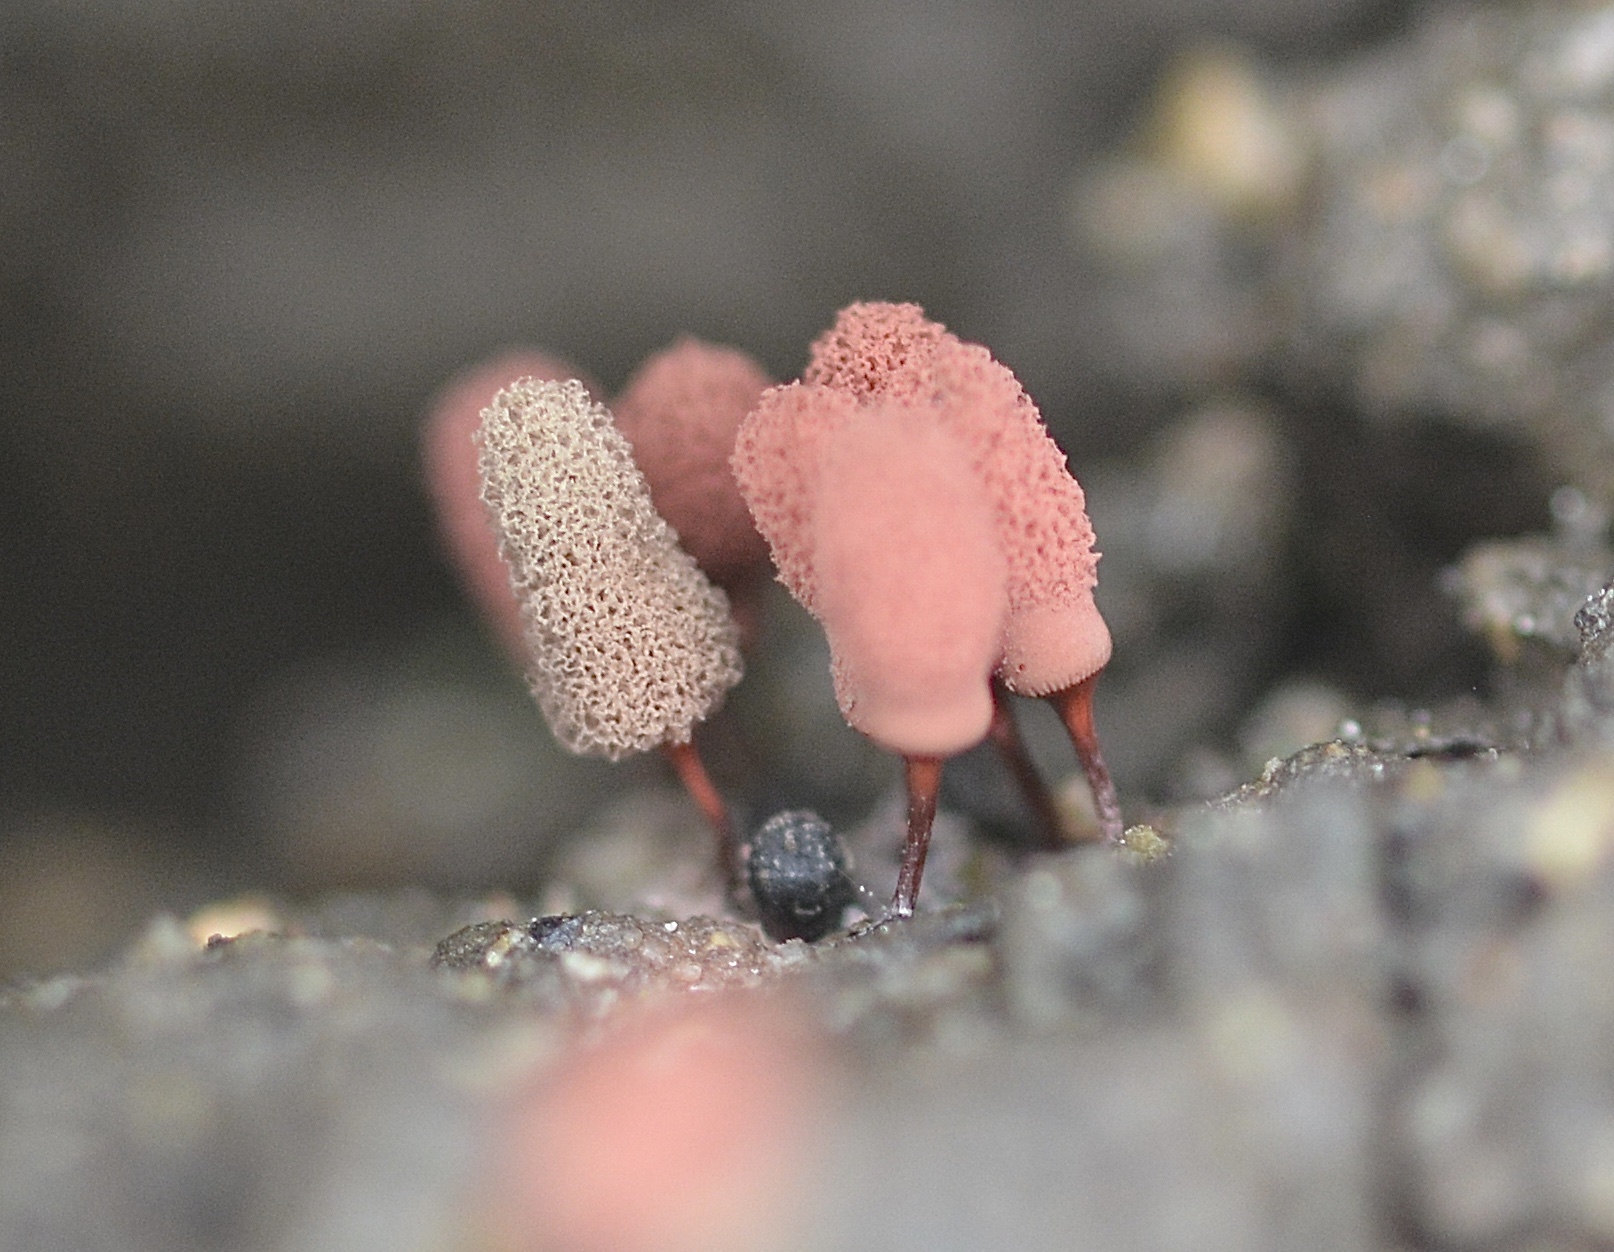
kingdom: Protozoa
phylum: Mycetozoa
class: Myxomycetes
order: Trichiales
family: Arcyriaceae
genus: Arcyria
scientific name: Arcyria denudata
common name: Carnival candy slime mold
